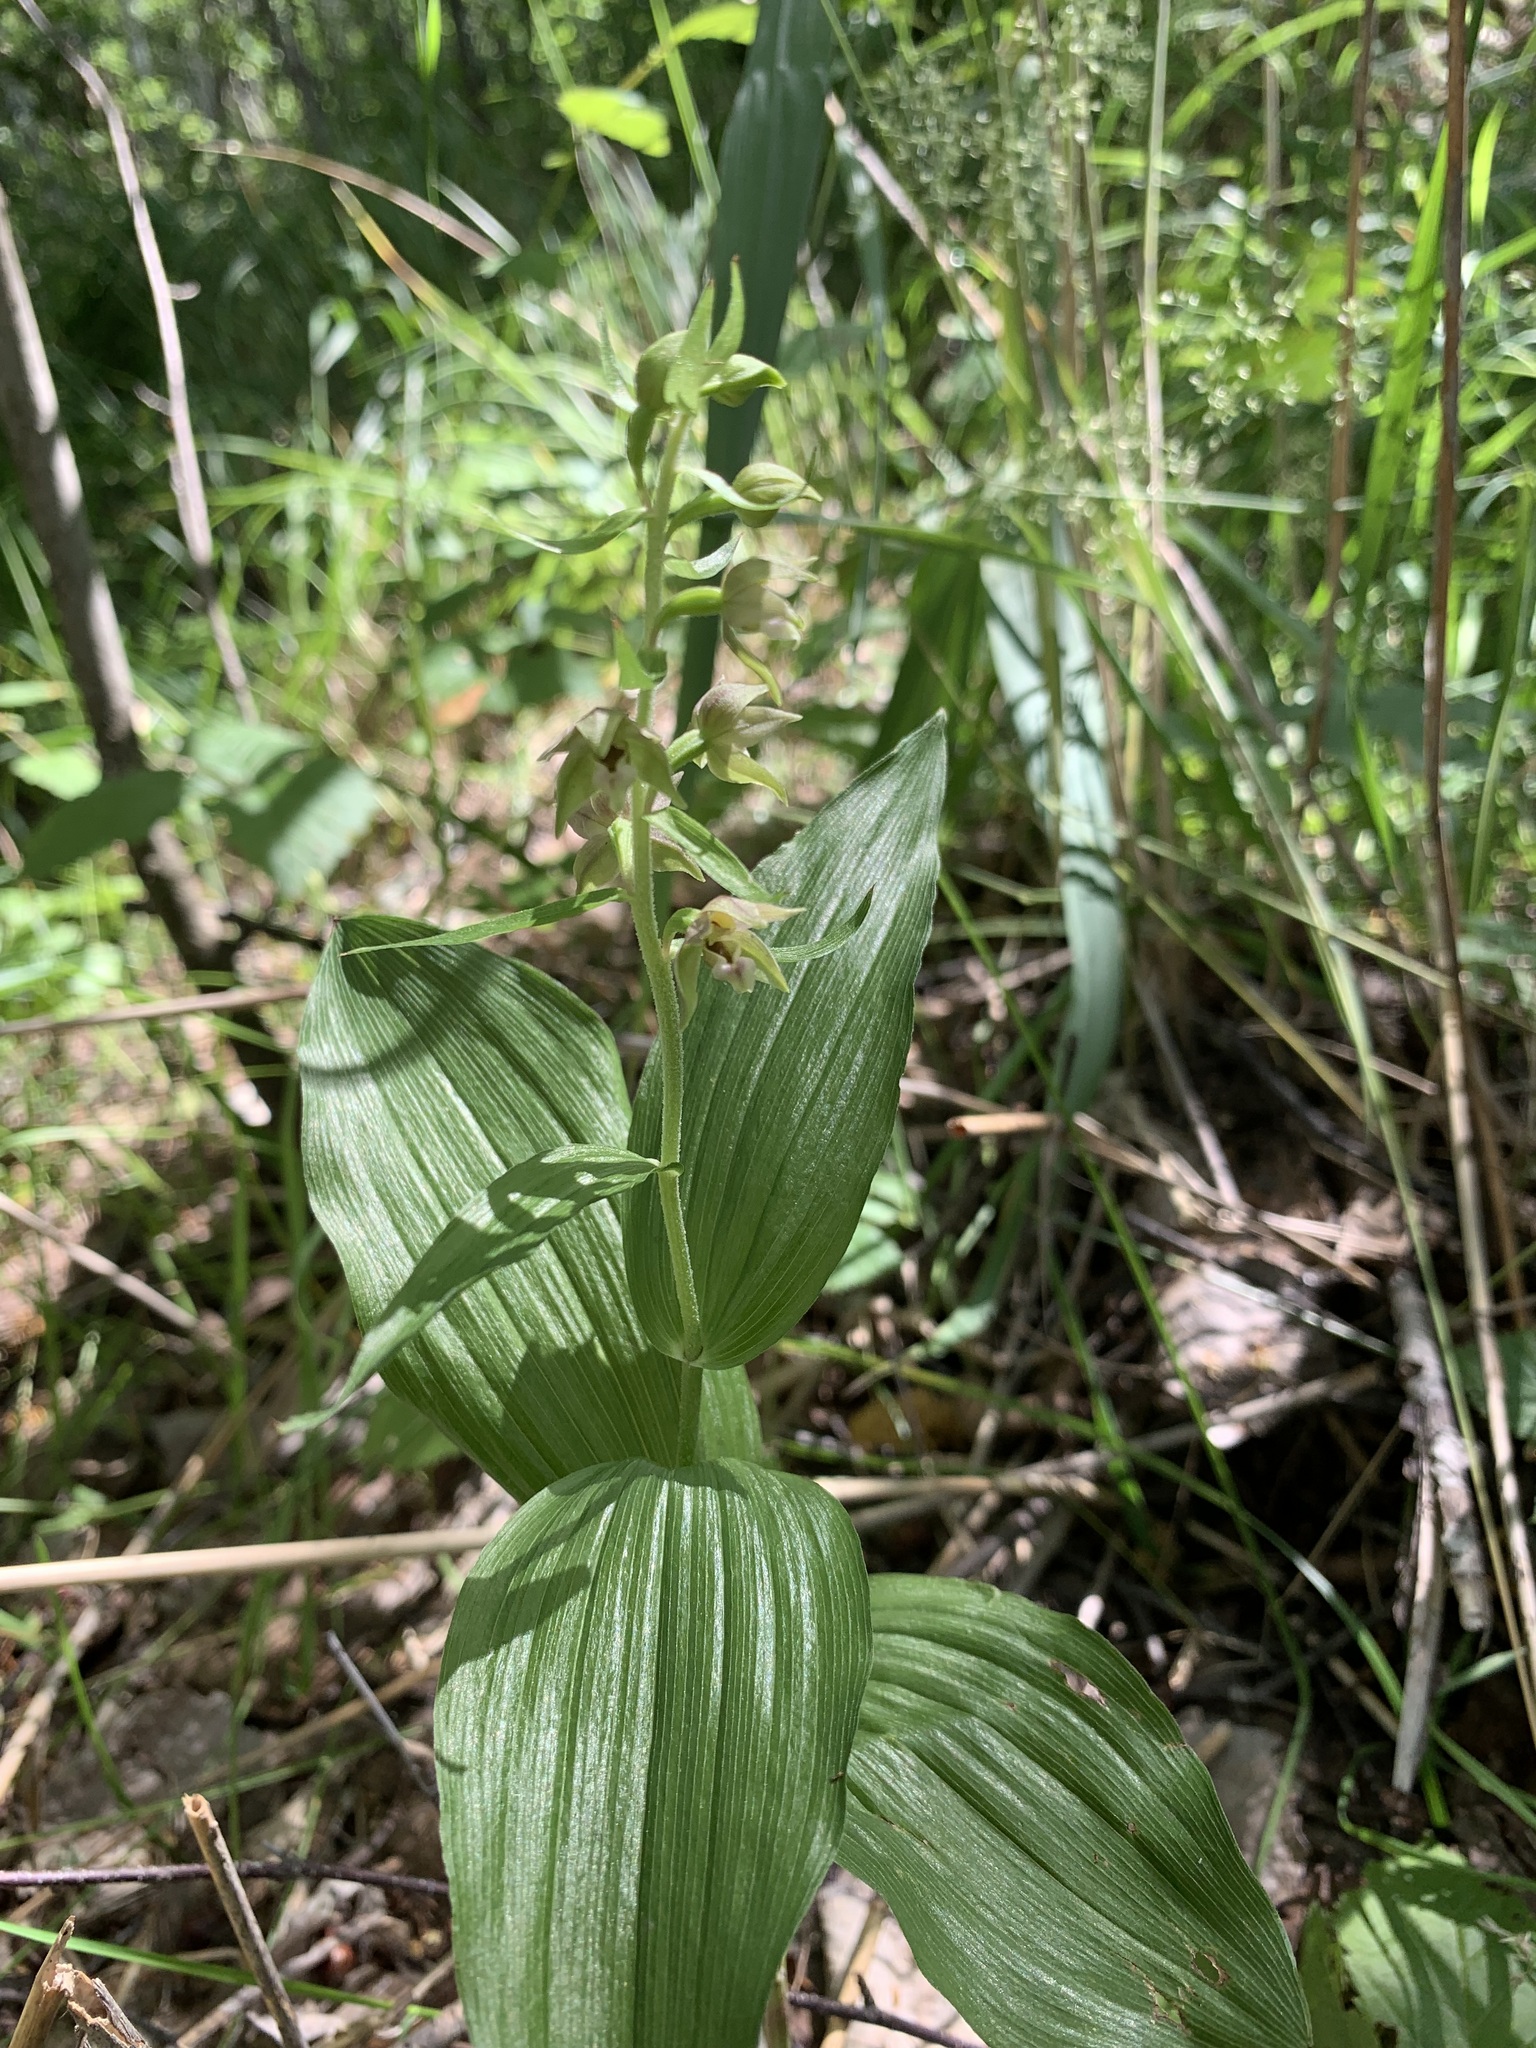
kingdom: Plantae
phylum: Tracheophyta
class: Liliopsida
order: Asparagales
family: Orchidaceae
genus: Epipactis
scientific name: Epipactis helleborine
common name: Broad-leaved helleborine
